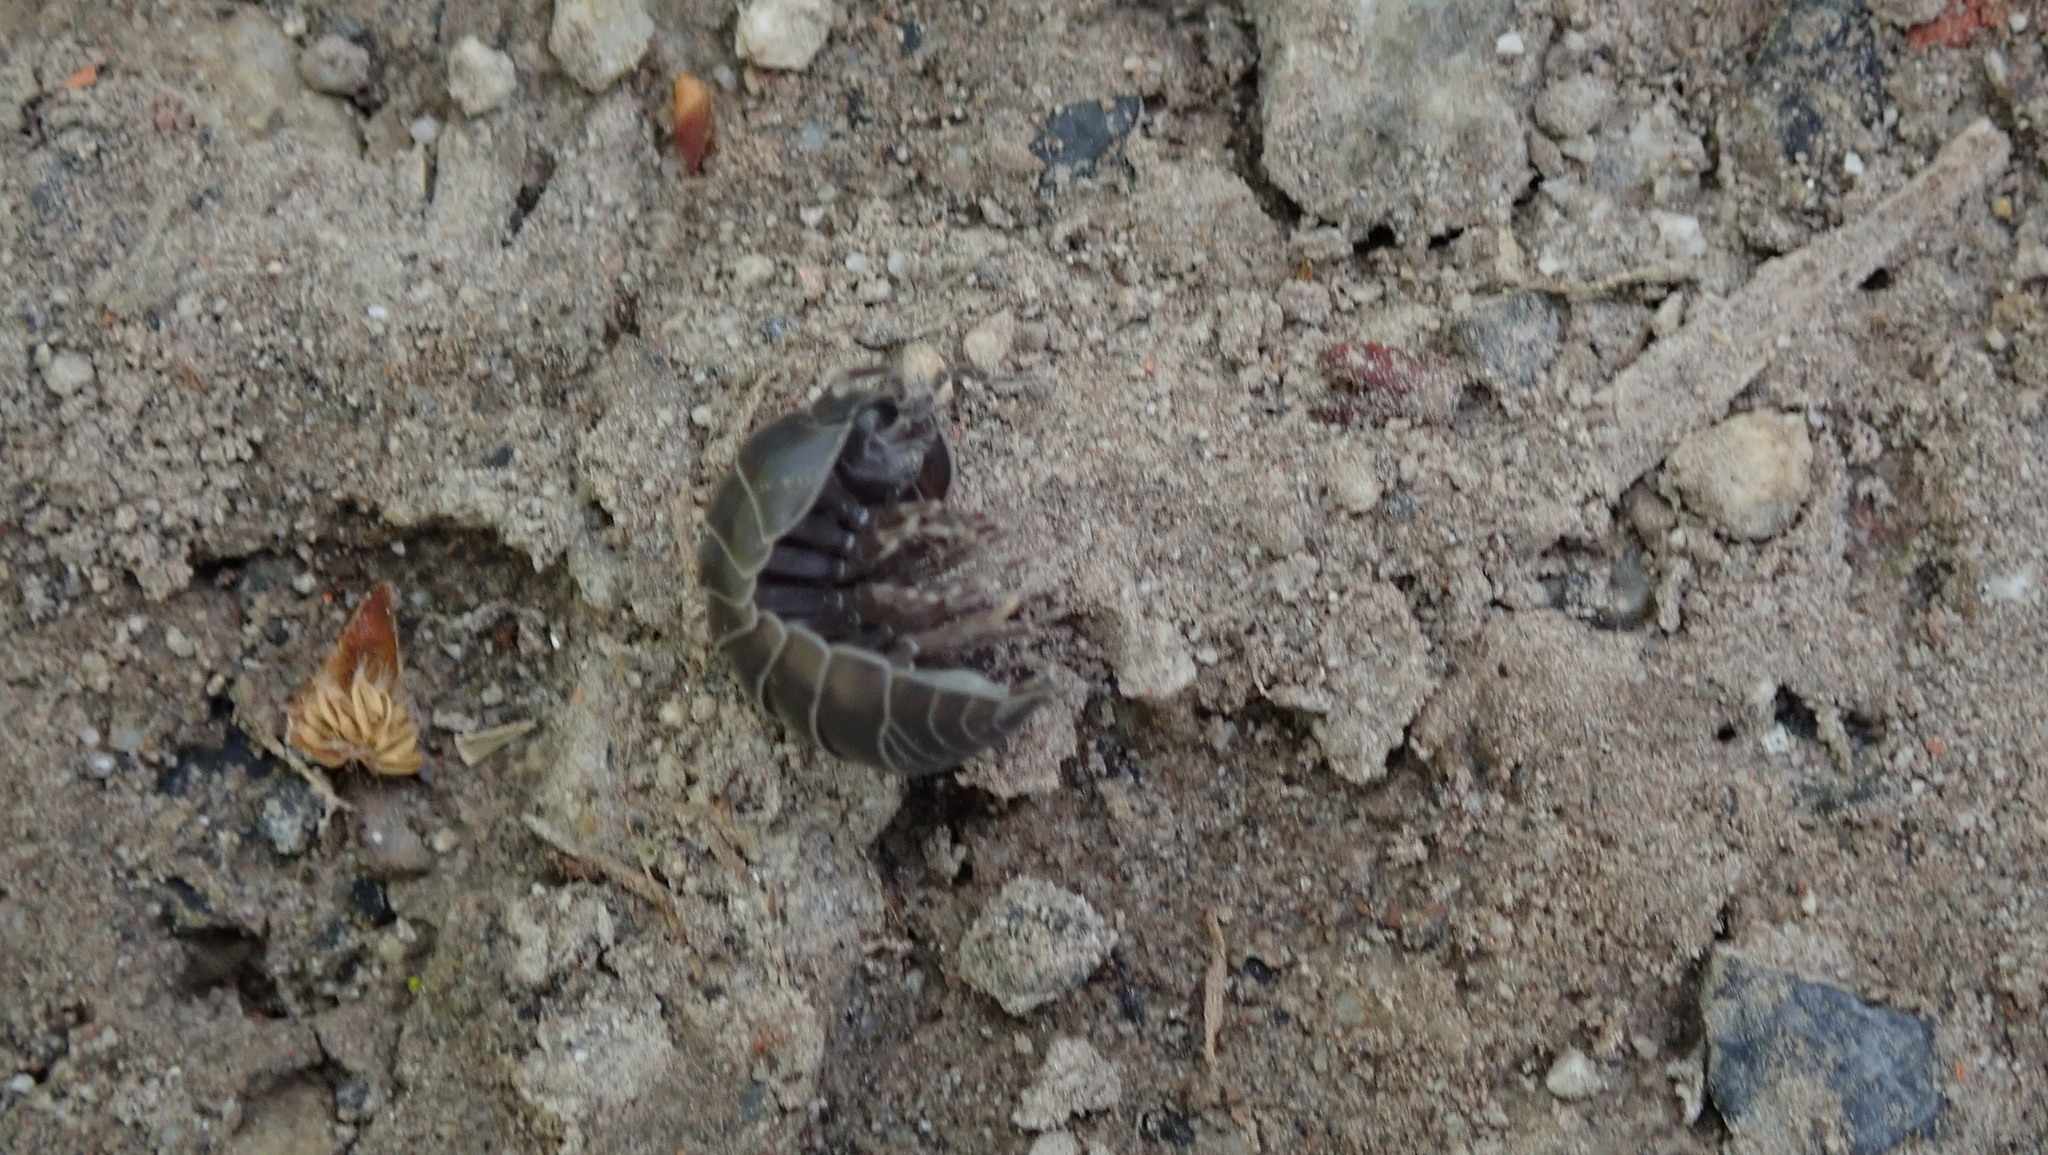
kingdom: Animalia
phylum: Arthropoda
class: Malacostraca
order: Isopoda
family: Armadillidiidae
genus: Armadillidium
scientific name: Armadillidium vulgare
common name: Common pill woodlouse
